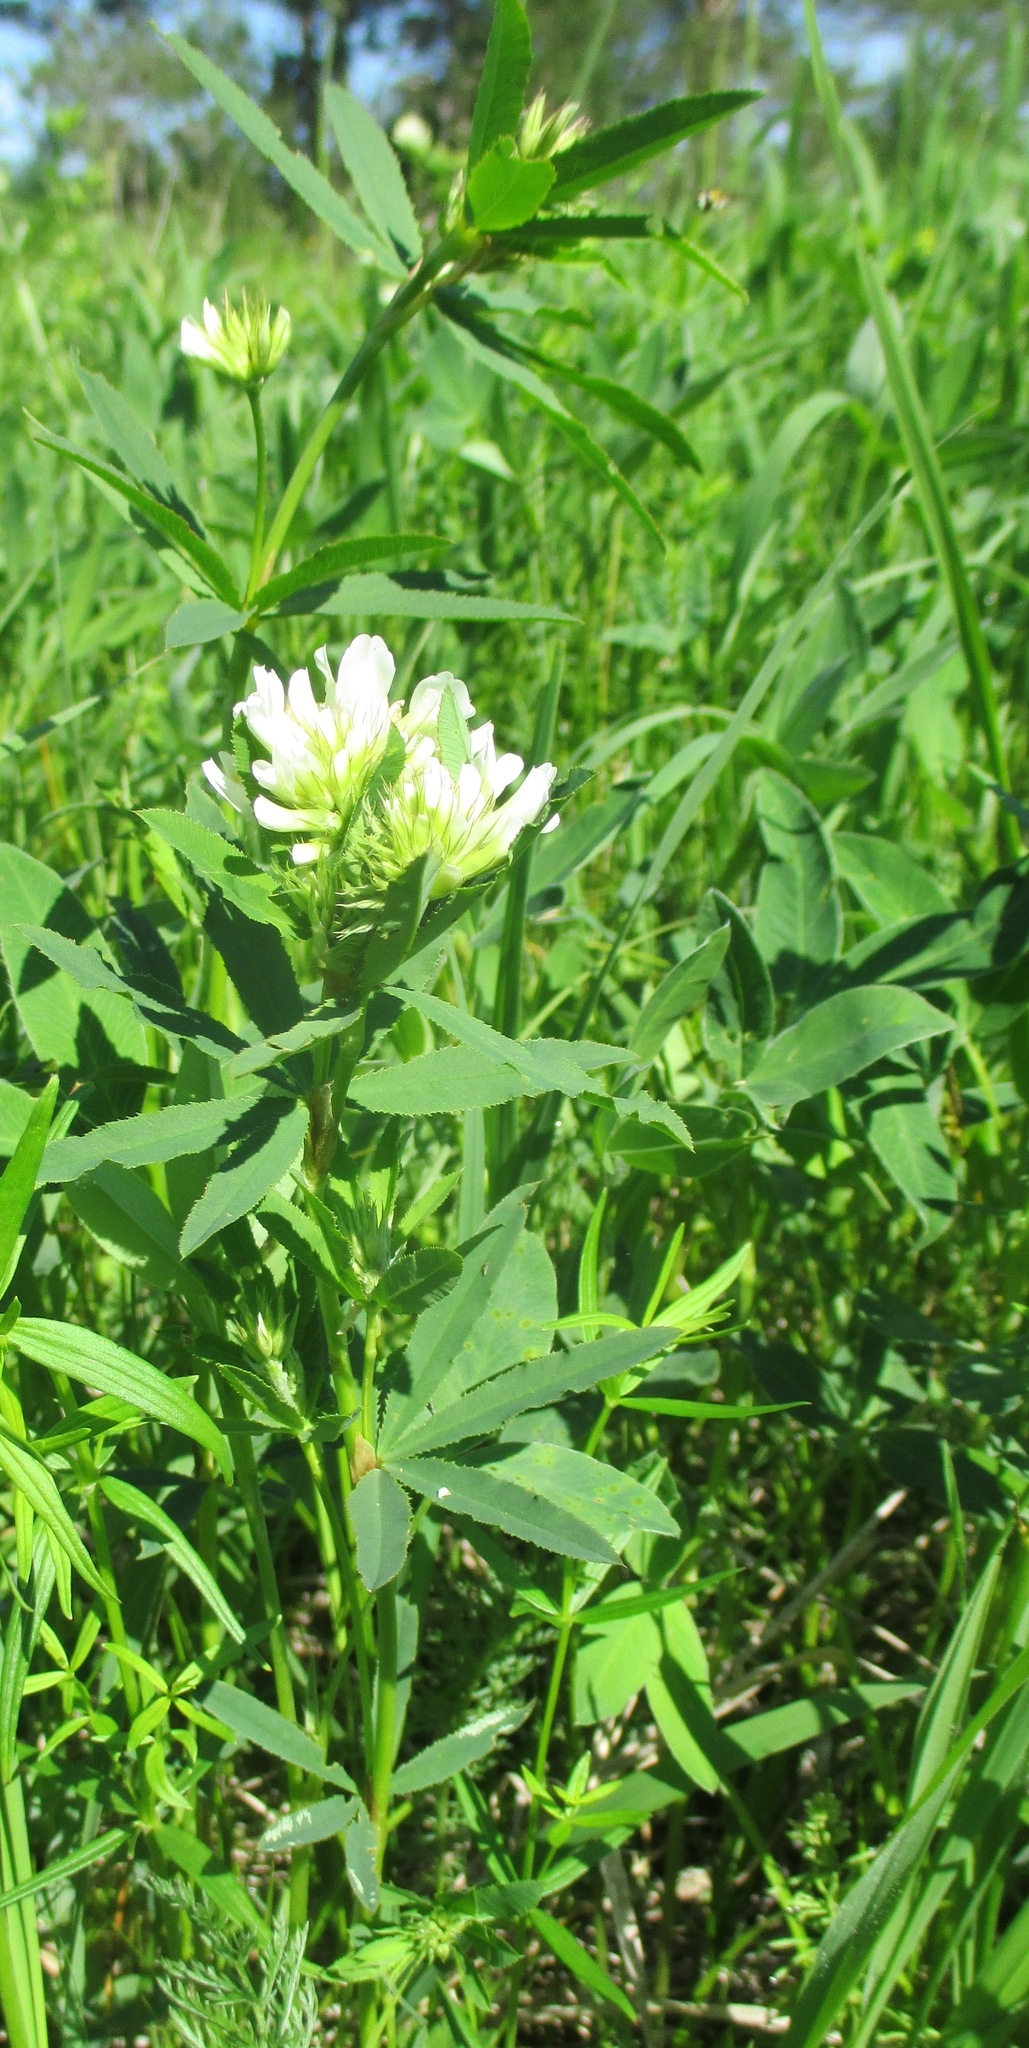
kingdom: Plantae
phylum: Tracheophyta
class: Magnoliopsida
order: Fabales
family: Fabaceae
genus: Trifolium
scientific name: Trifolium lupinaster
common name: Lupine clover
